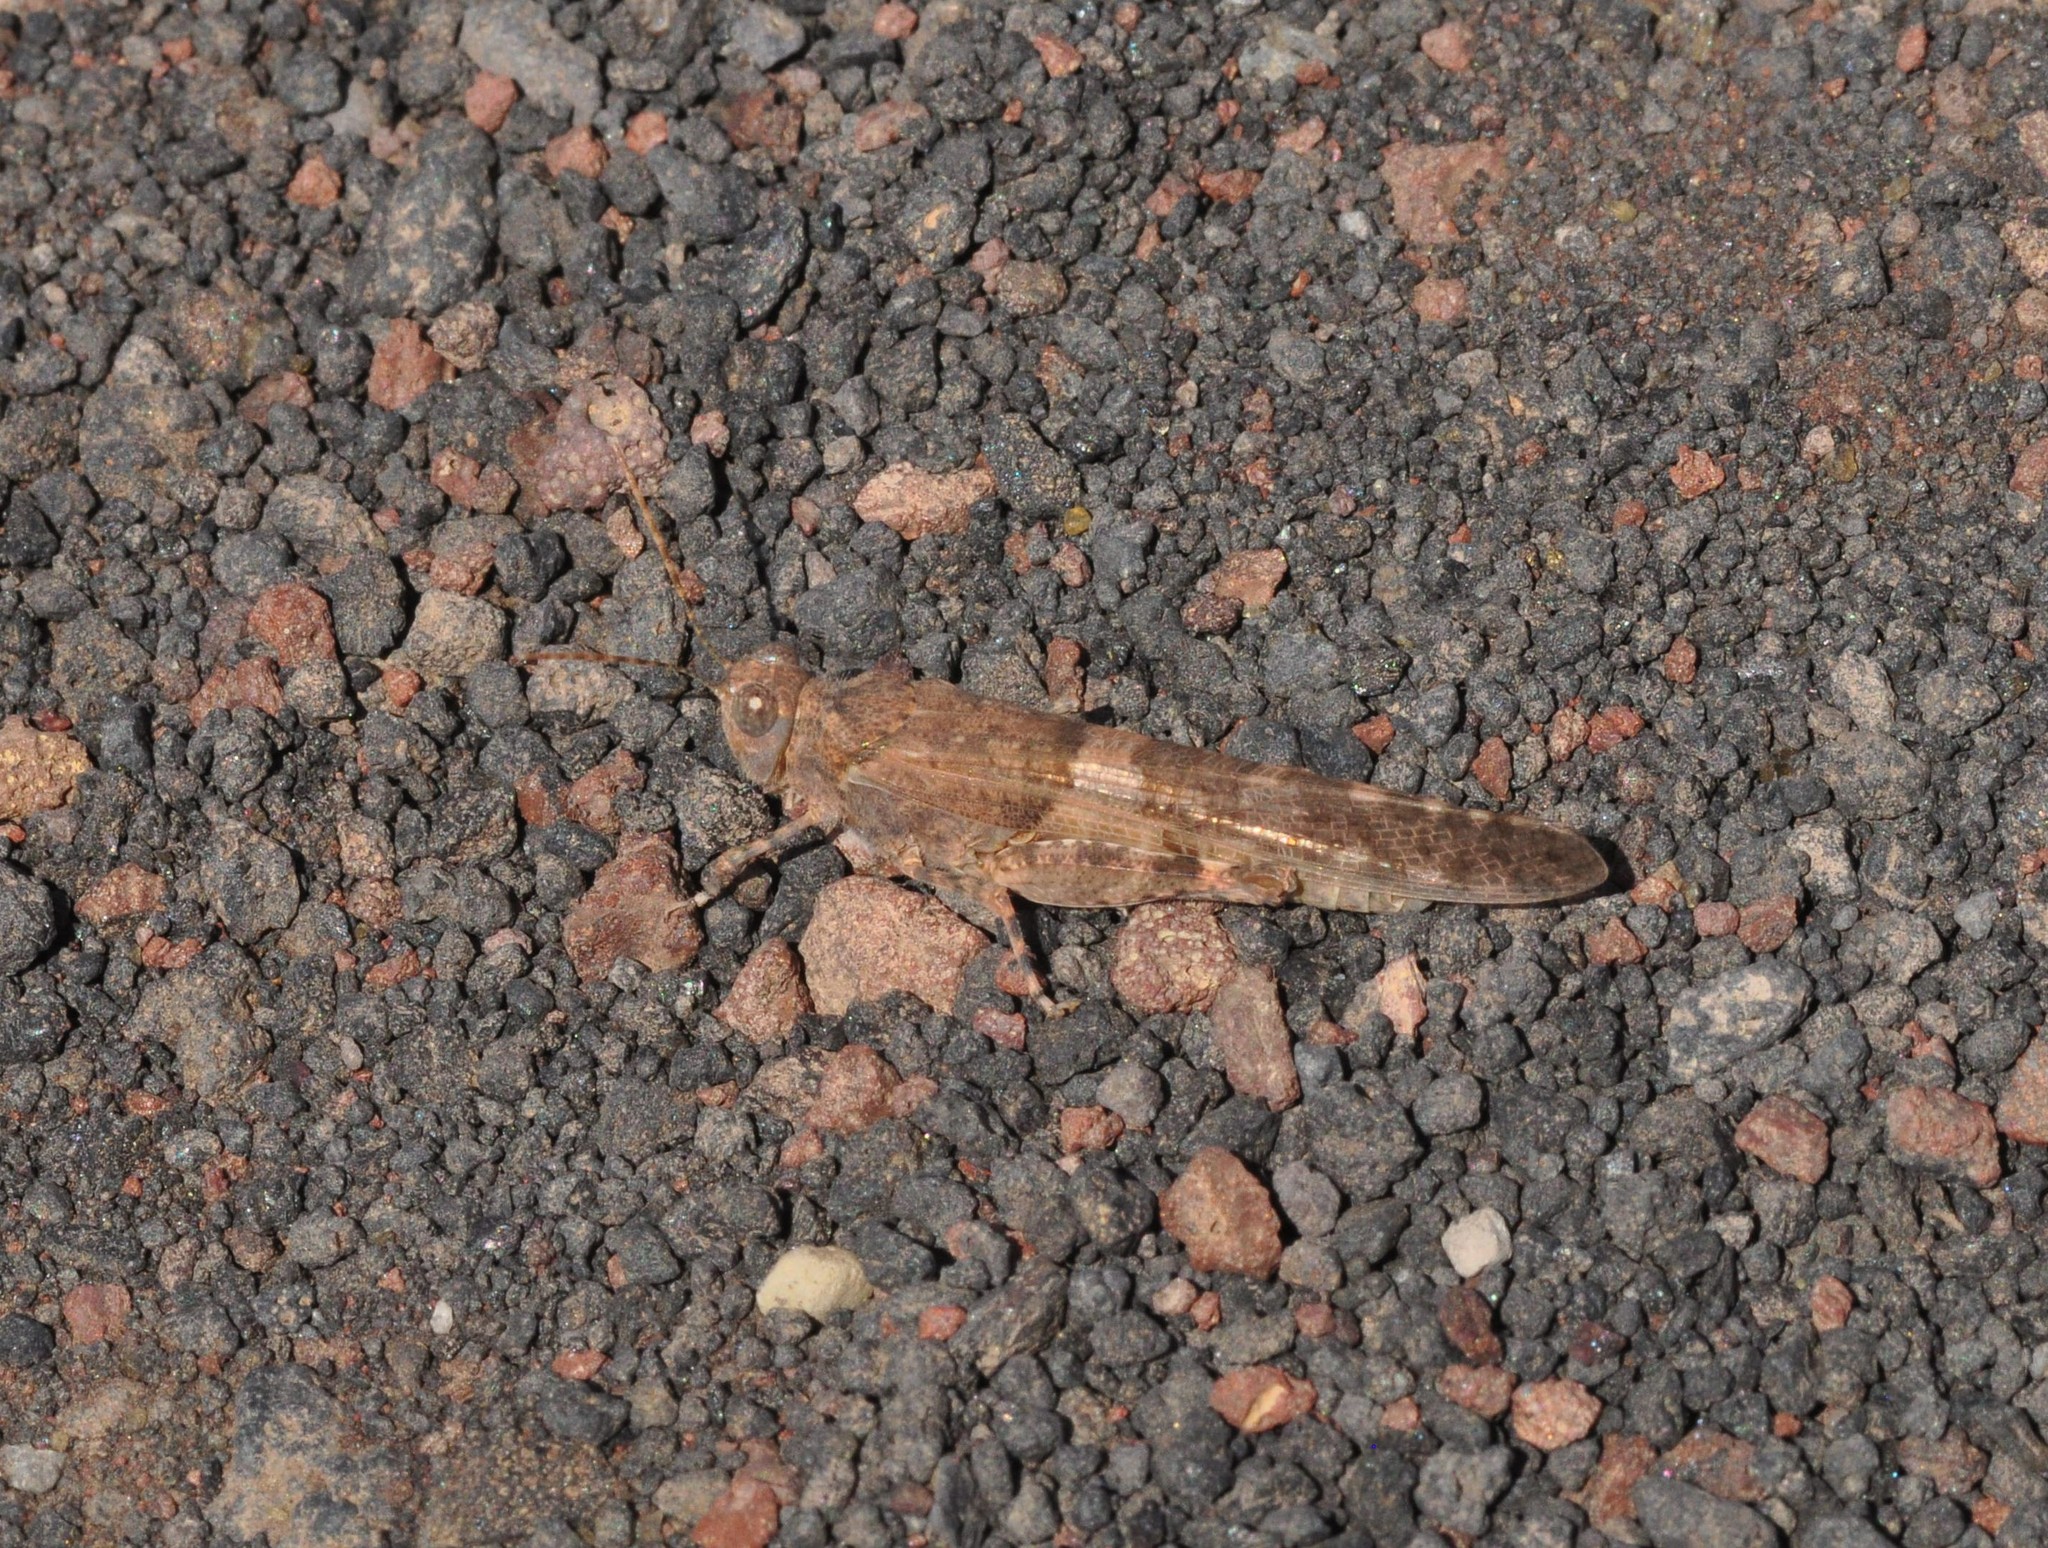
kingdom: Animalia
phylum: Arthropoda
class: Insecta
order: Orthoptera
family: Acrididae
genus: Sphingonotus
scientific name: Sphingonotus rubescens
